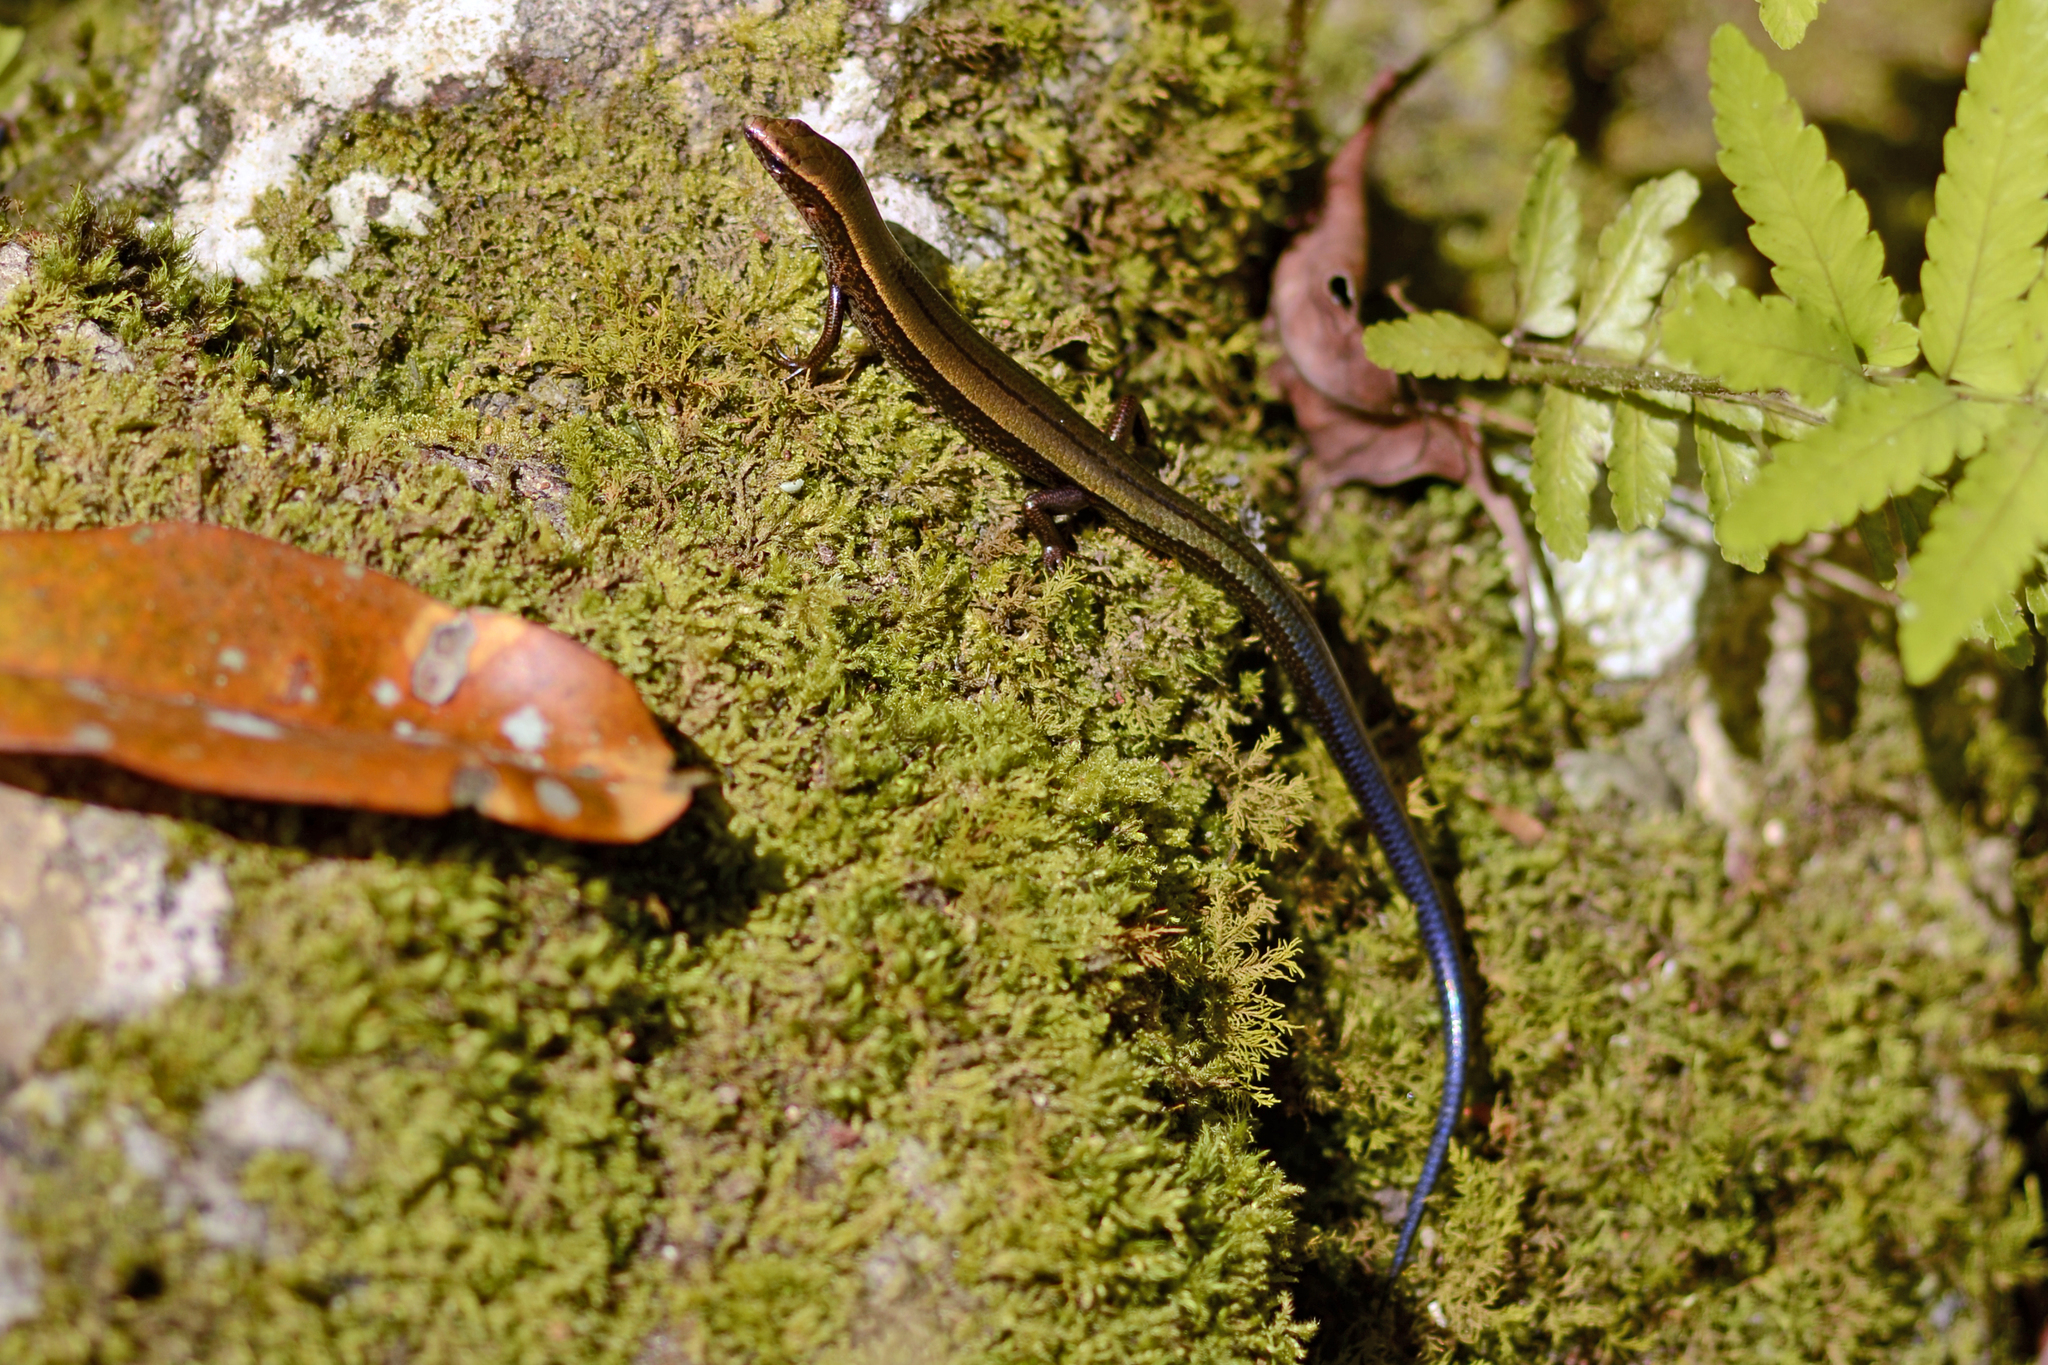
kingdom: Animalia
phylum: Chordata
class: Squamata
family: Scincidae
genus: Kaestlea
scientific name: Kaestlea travancorica
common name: Barbour's ground skink
